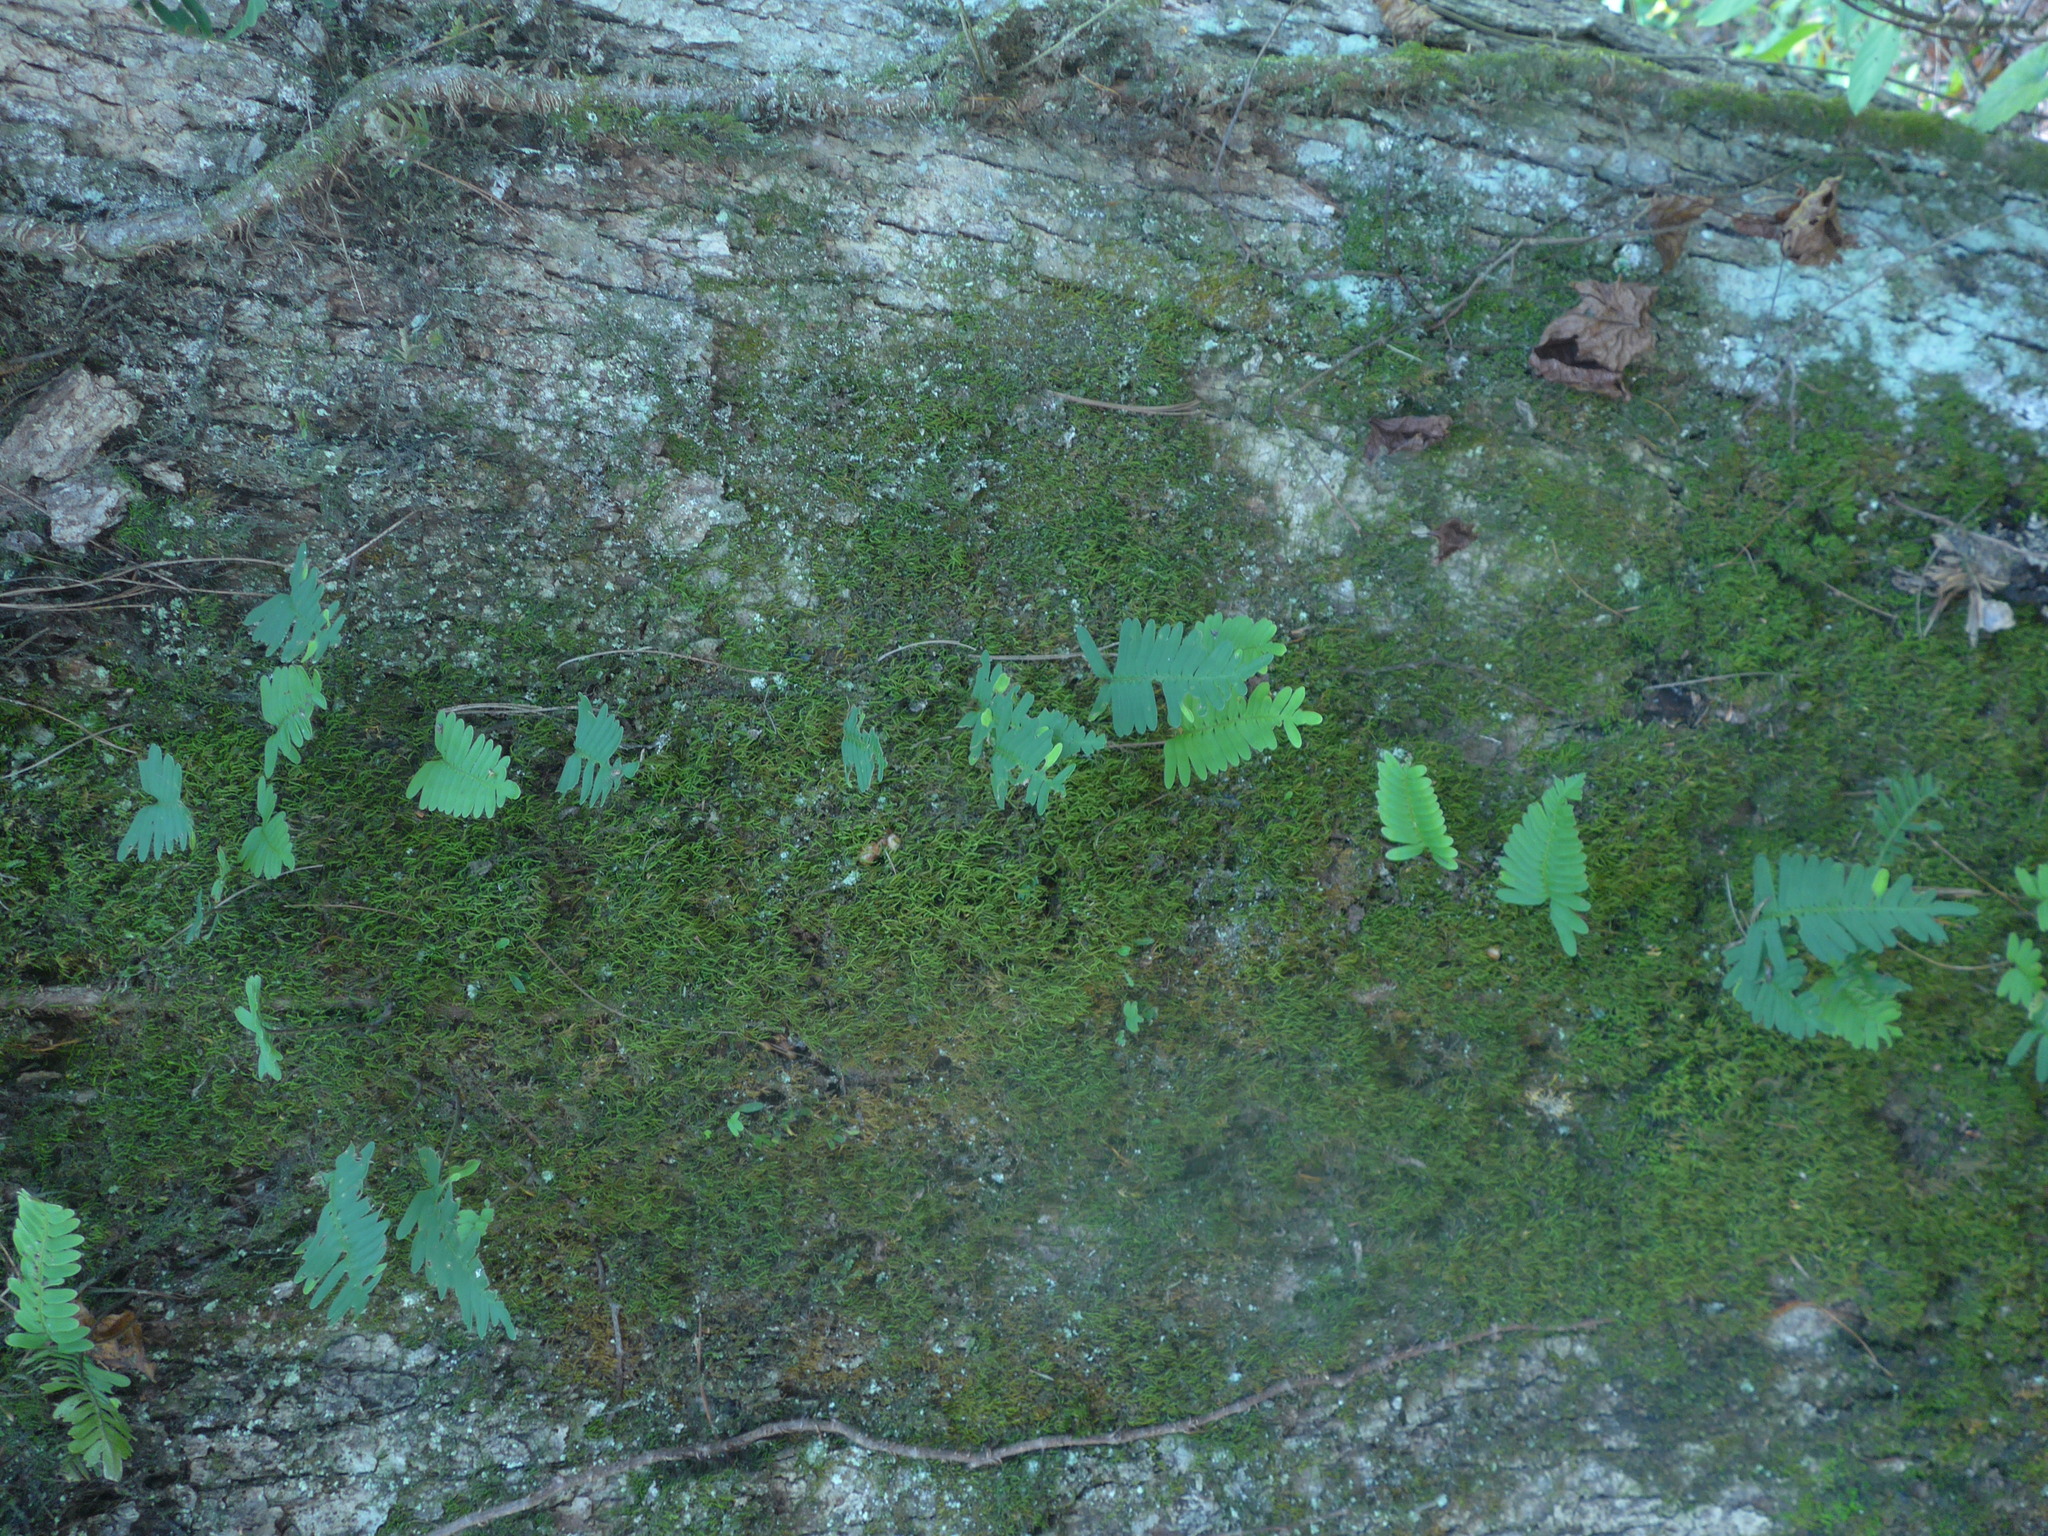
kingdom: Plantae
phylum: Tracheophyta
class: Polypodiopsida
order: Polypodiales
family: Polypodiaceae
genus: Pleopeltis
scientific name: Pleopeltis michauxiana
